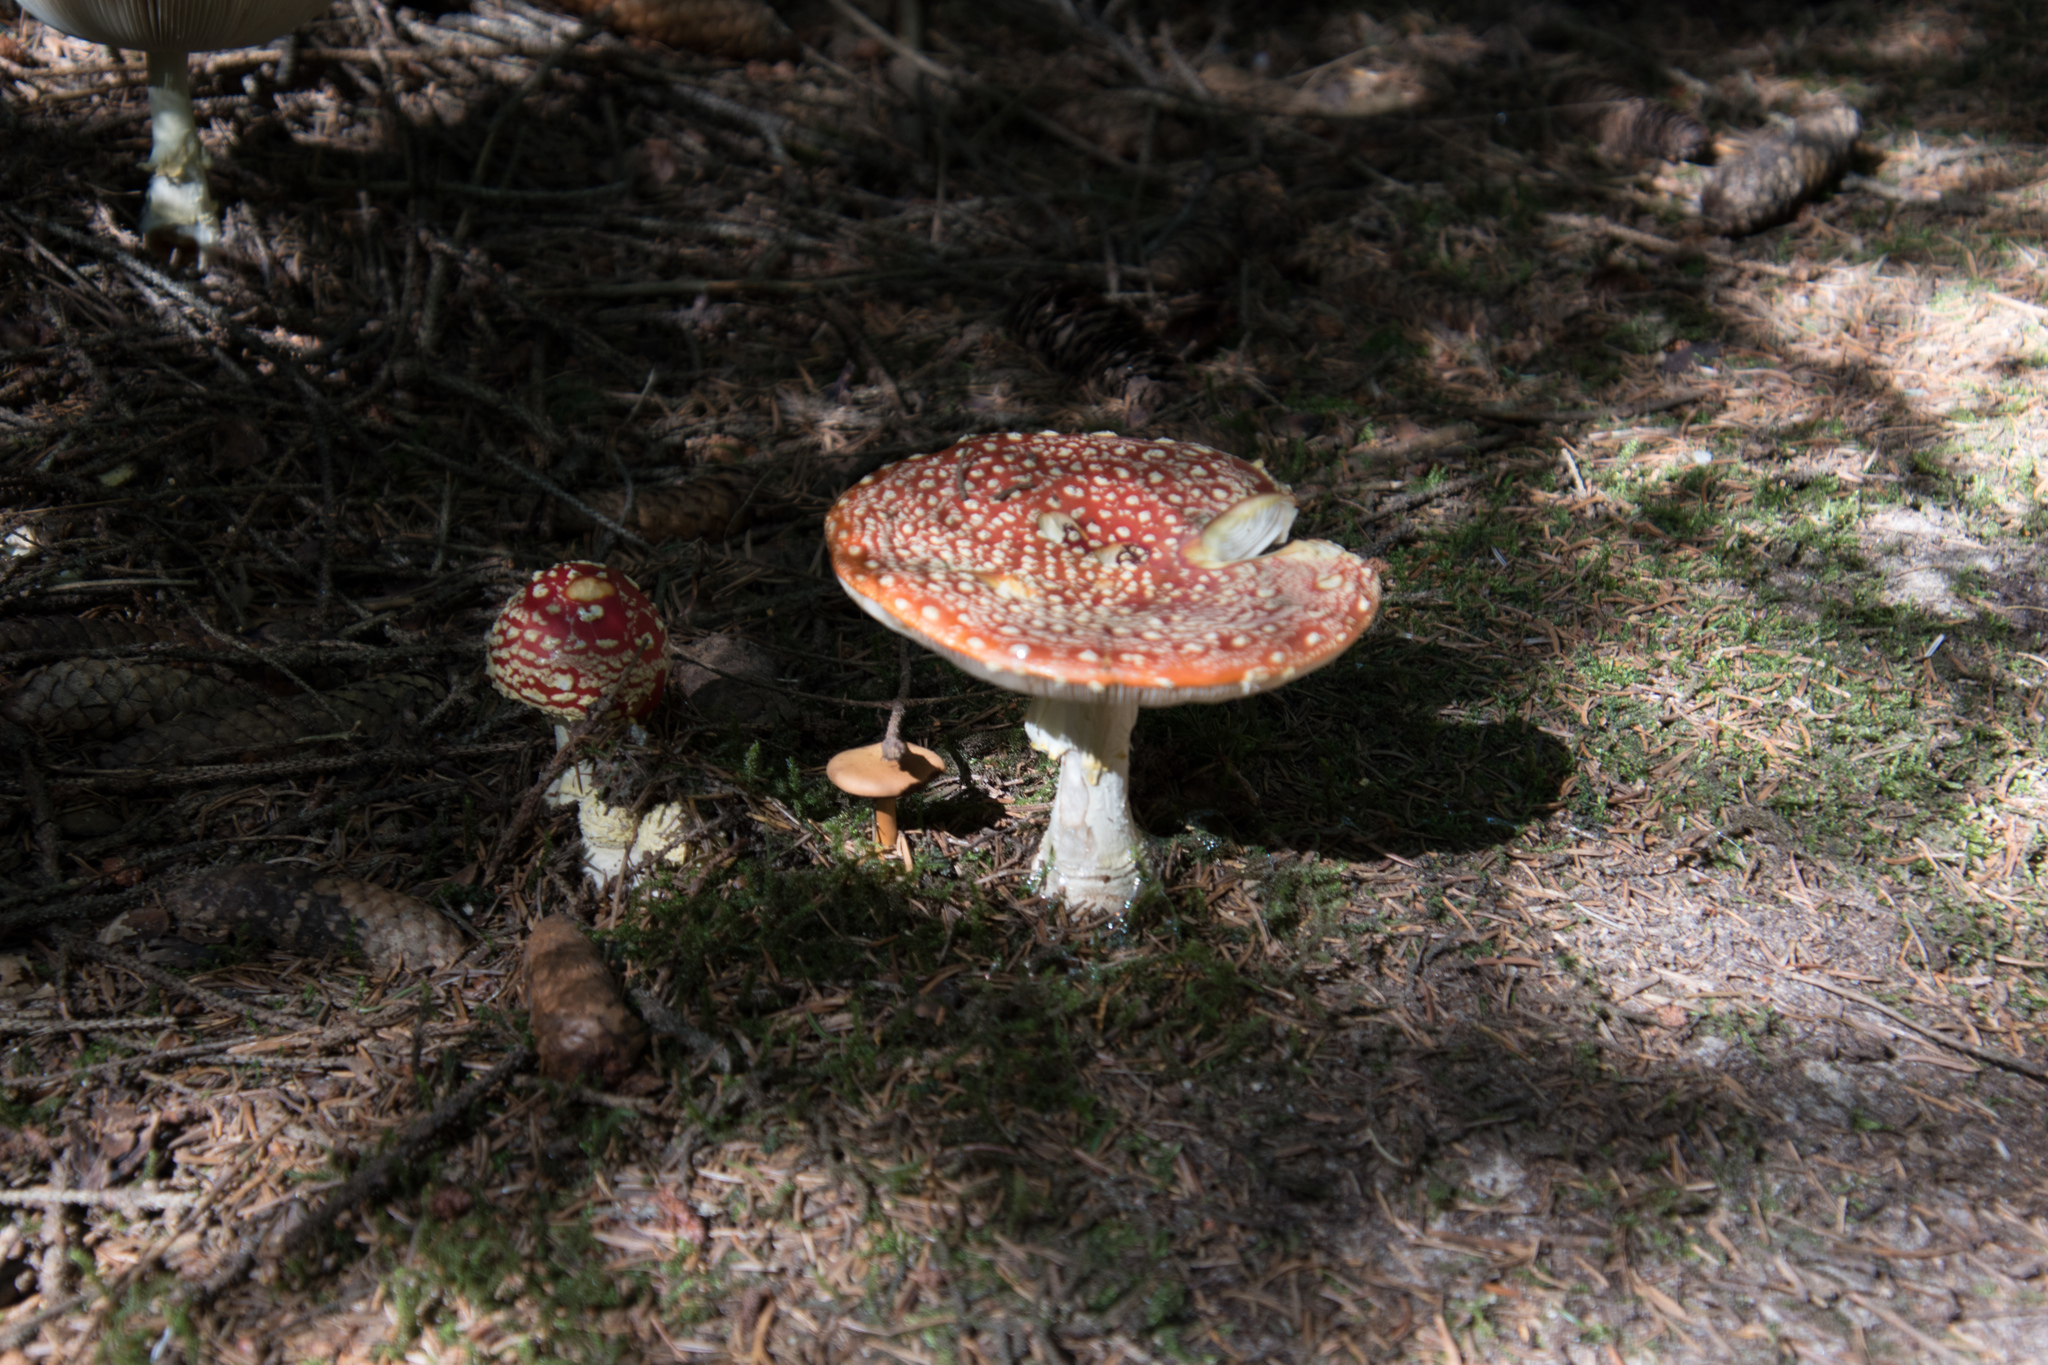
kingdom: Fungi
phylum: Basidiomycota
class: Agaricomycetes
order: Agaricales
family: Amanitaceae
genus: Amanita
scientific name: Amanita muscaria
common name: Fly agaric
